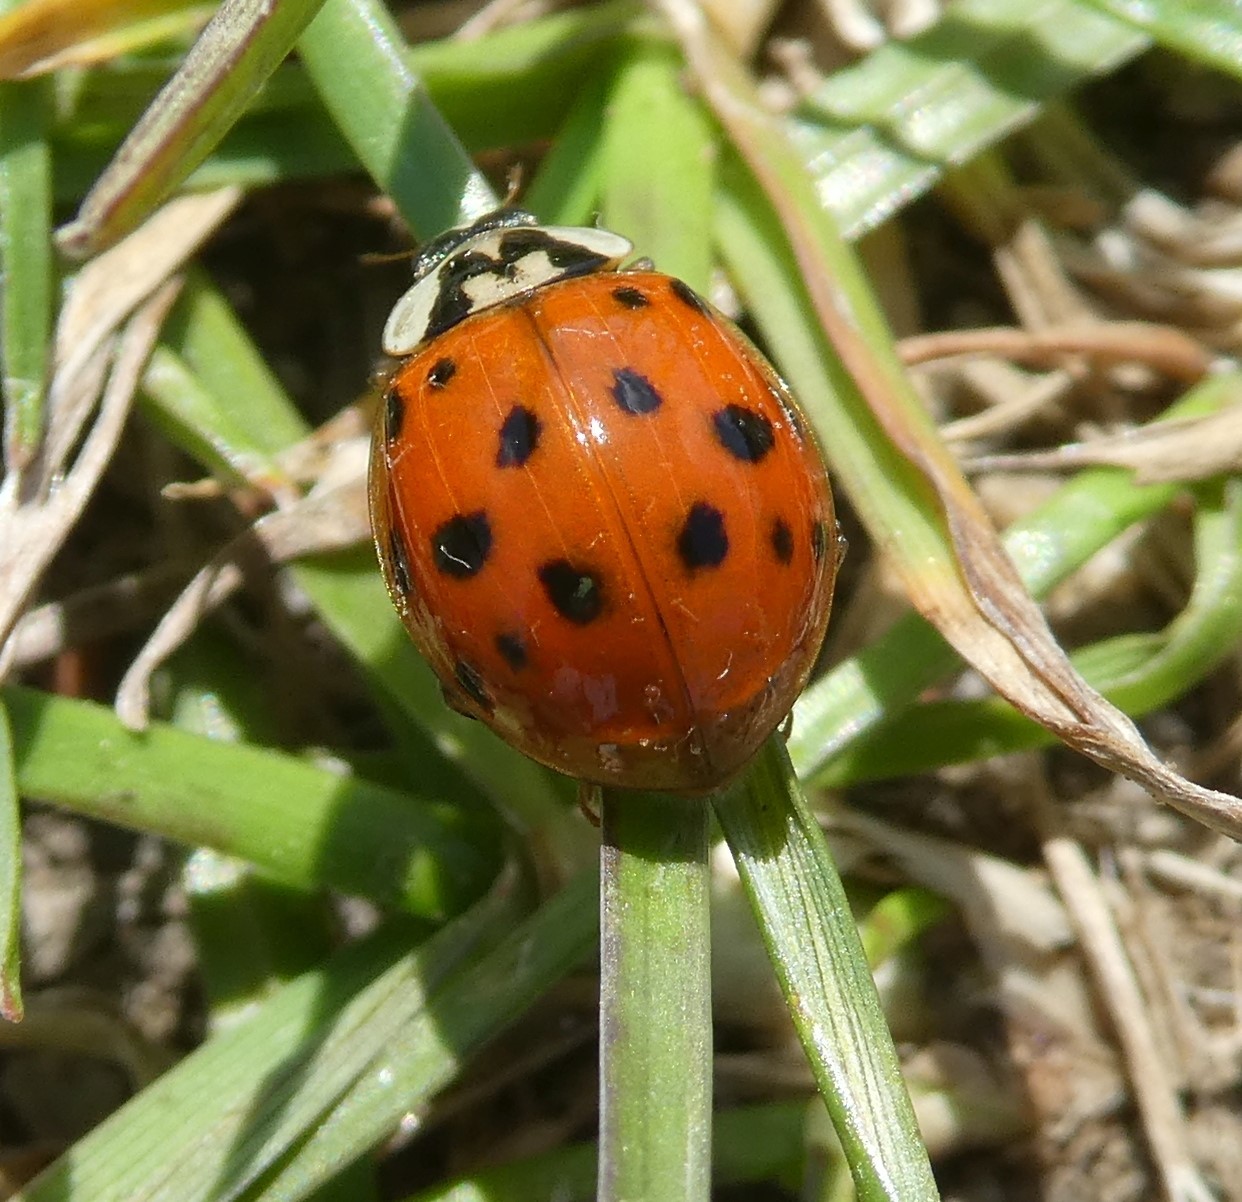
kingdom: Animalia
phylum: Arthropoda
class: Insecta
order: Coleoptera
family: Coccinellidae
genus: Harmonia
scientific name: Harmonia axyridis
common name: Harlequin ladybird
